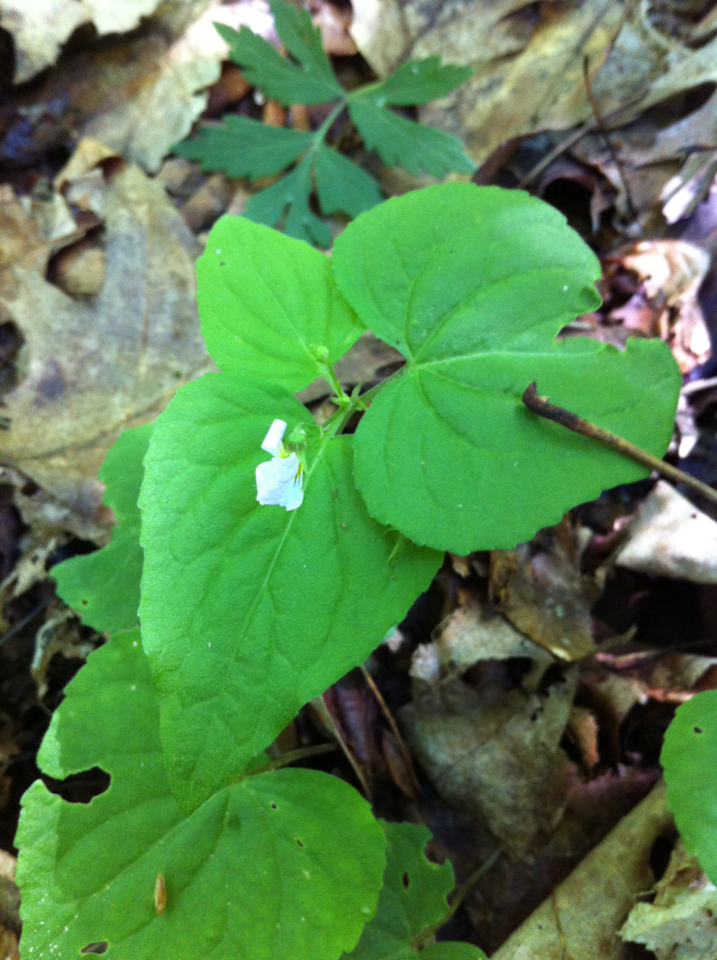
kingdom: Plantae
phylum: Tracheophyta
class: Magnoliopsida
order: Malpighiales
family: Violaceae
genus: Viola
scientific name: Viola canadensis
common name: Canada violet
